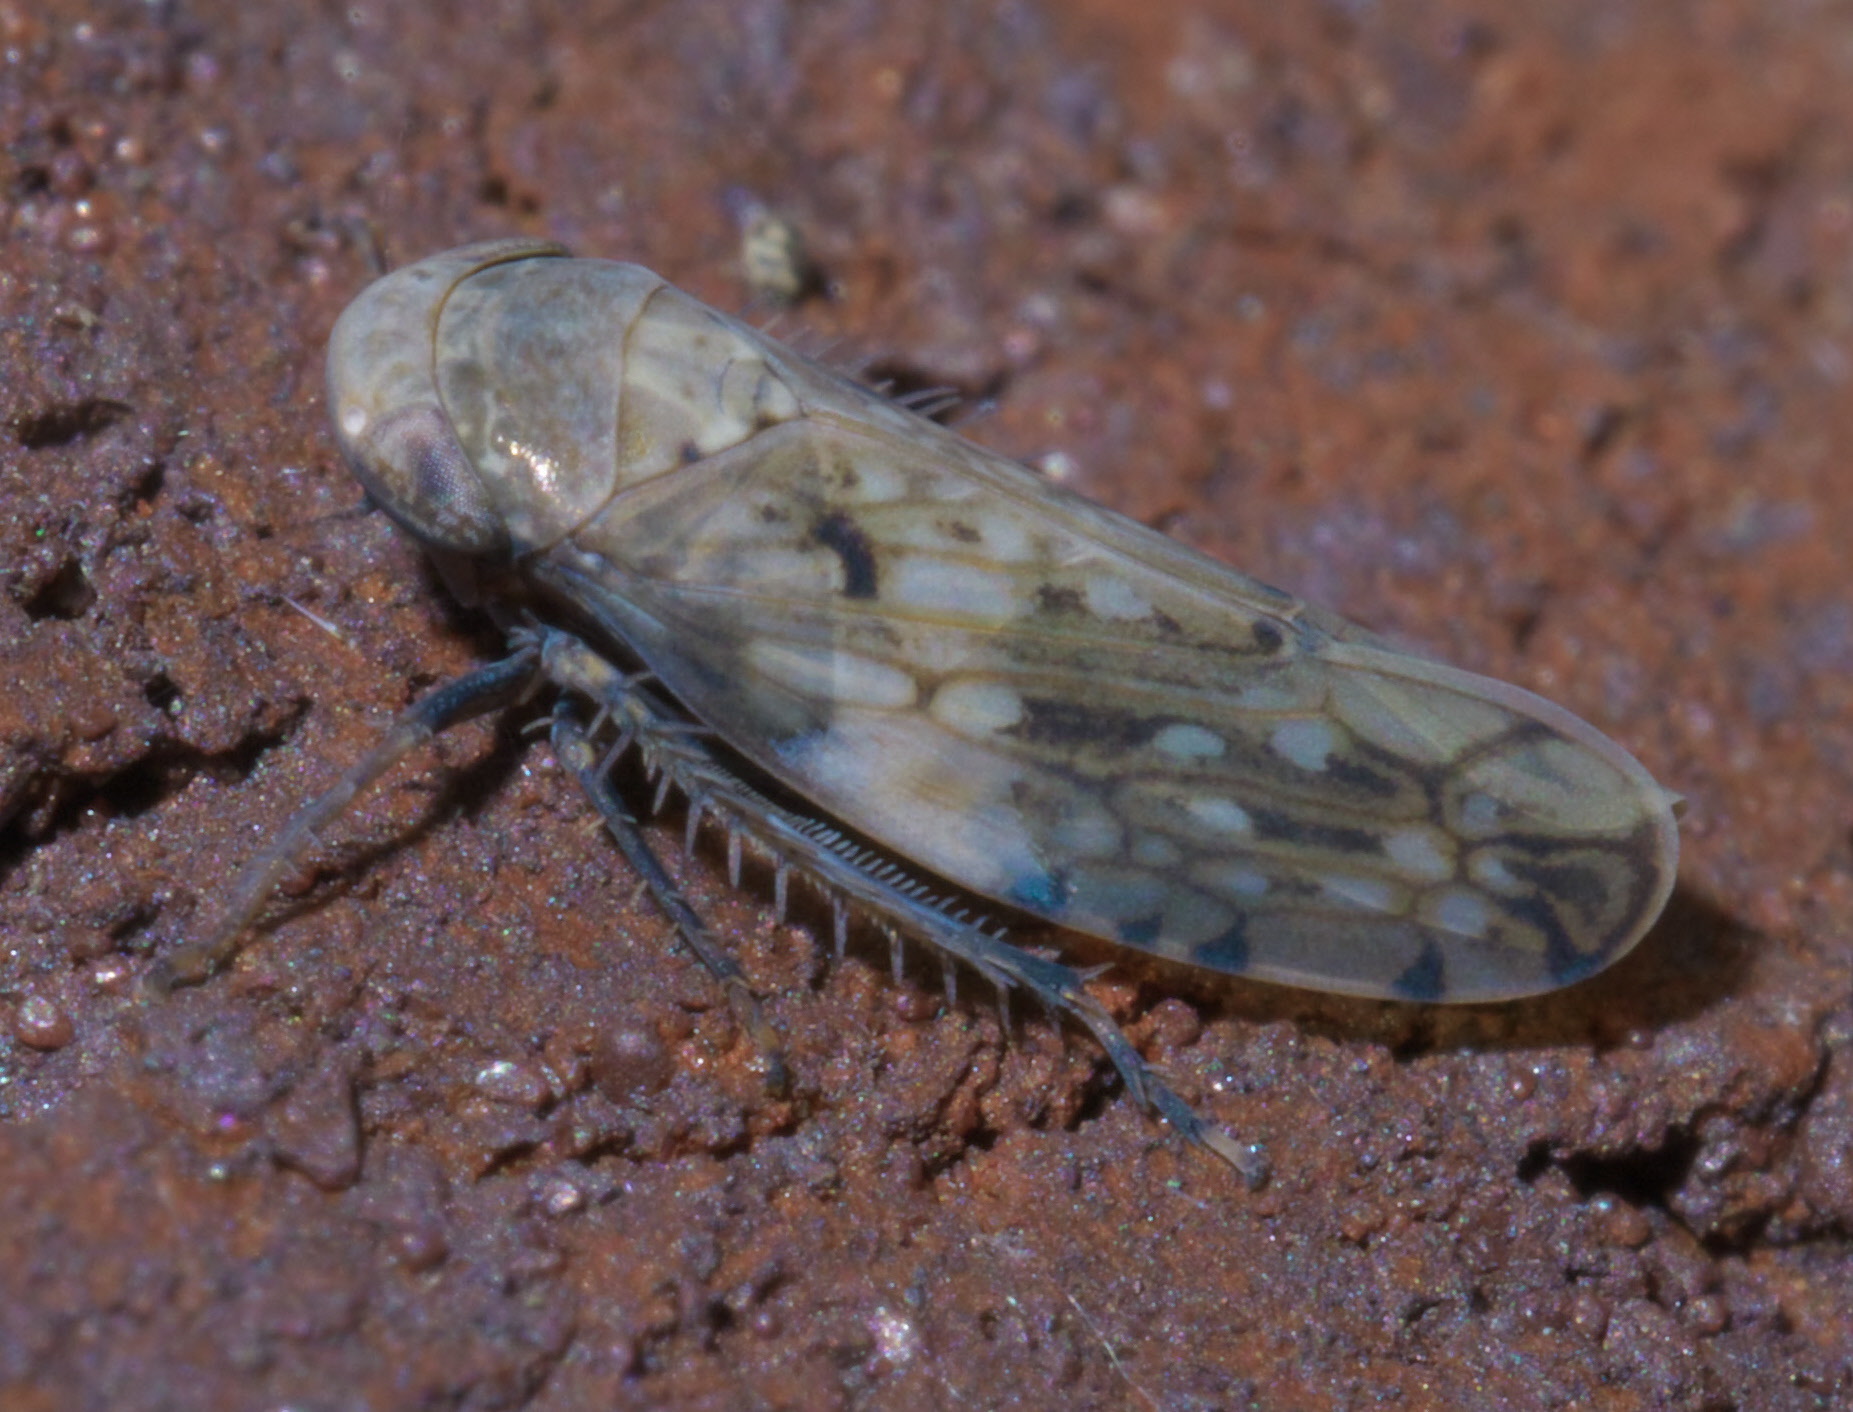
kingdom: Animalia
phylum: Arthropoda
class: Insecta
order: Hemiptera
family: Cicadellidae
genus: Menosoma
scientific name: Menosoma cinctum
